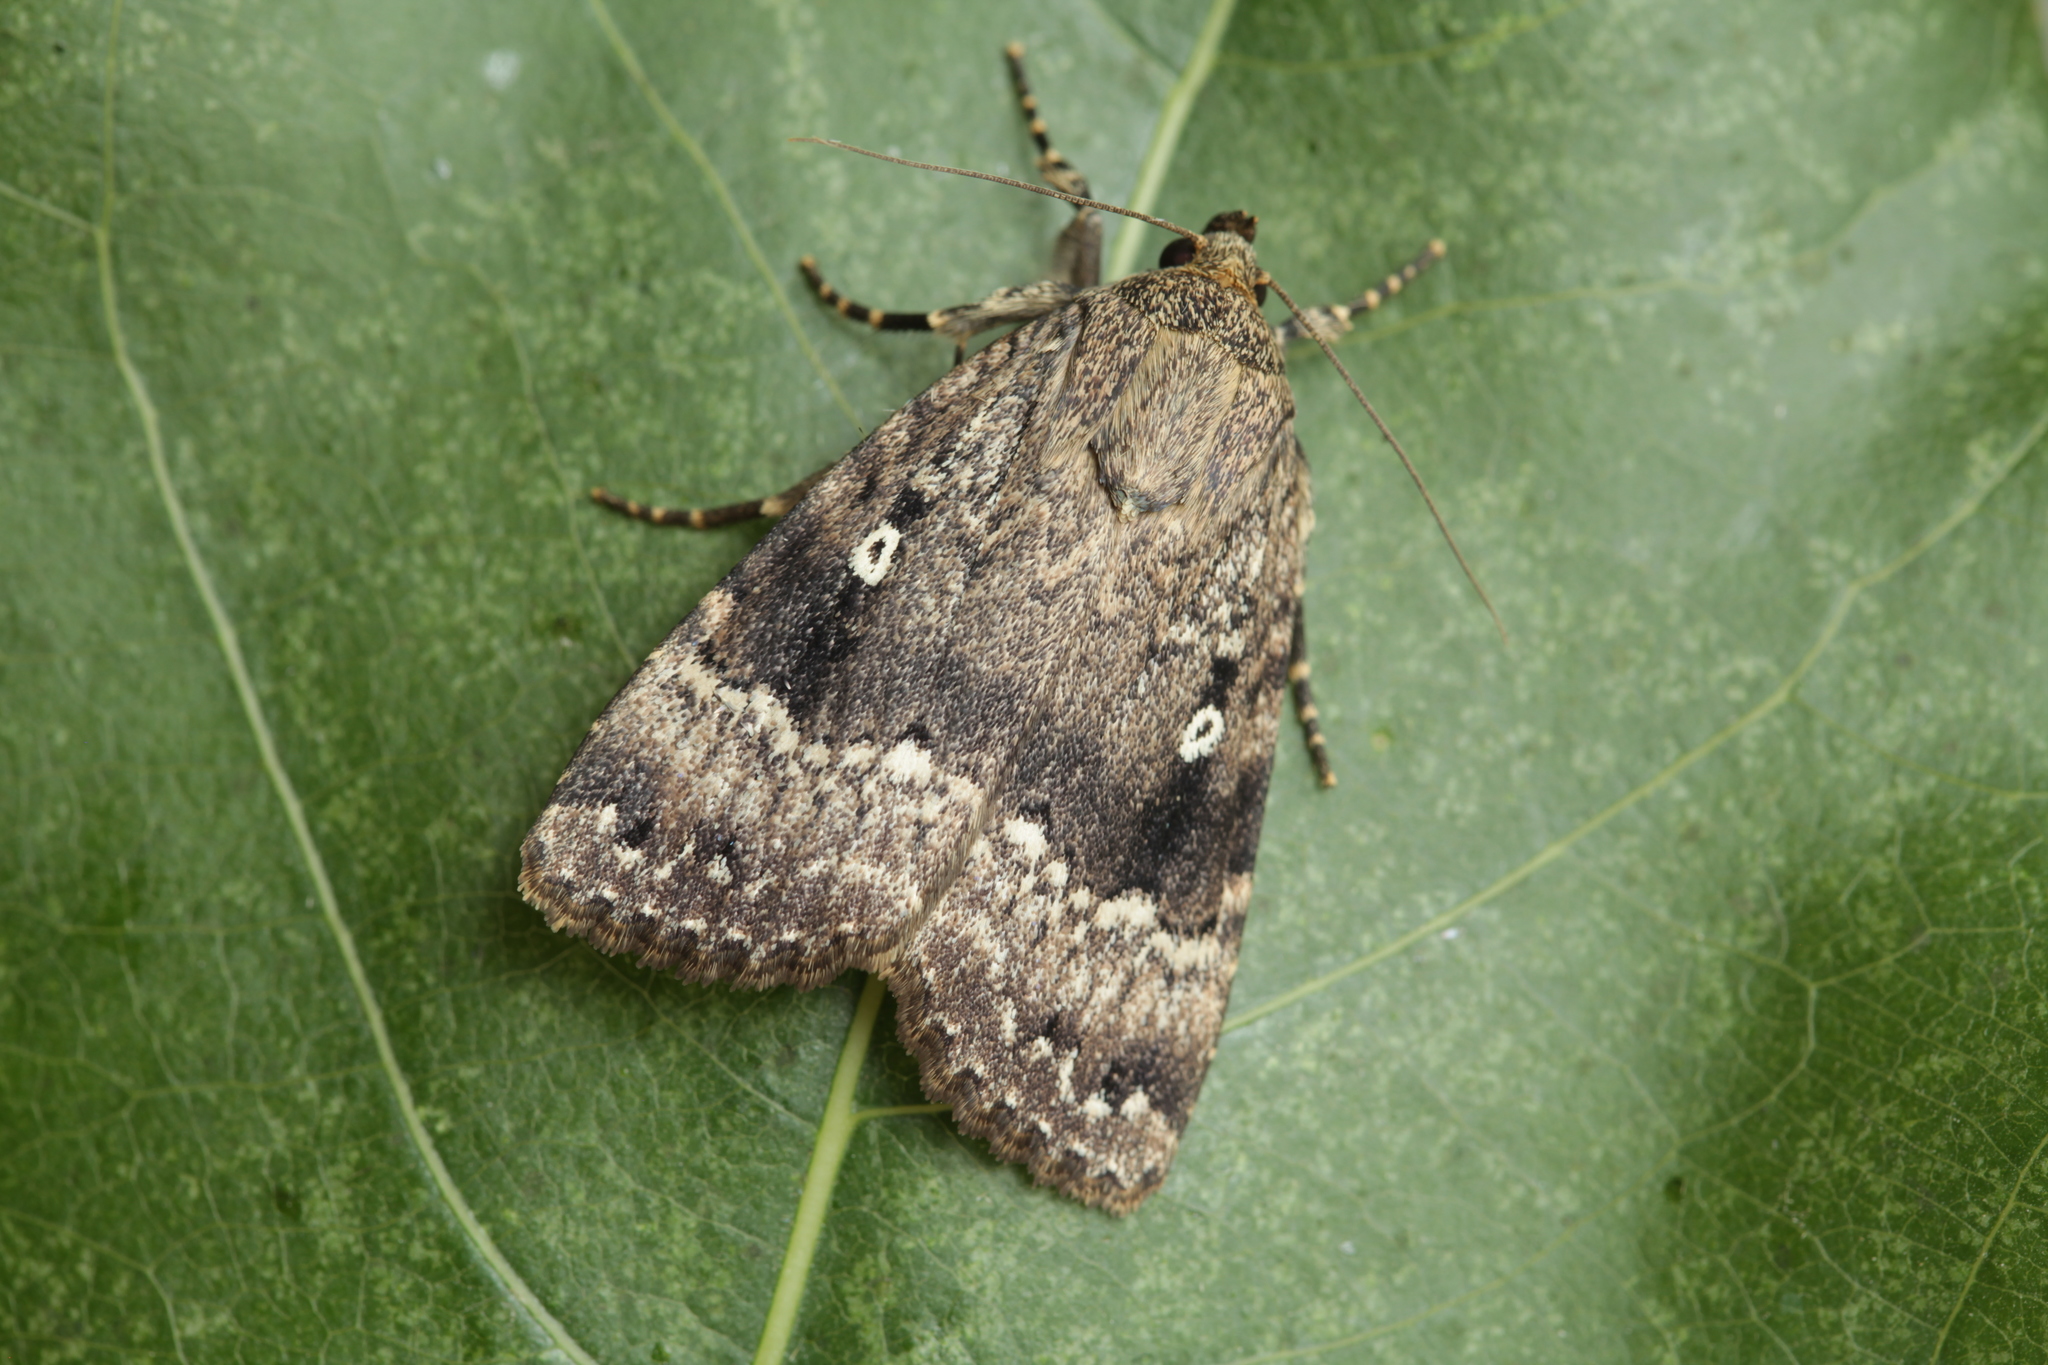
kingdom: Animalia
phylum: Arthropoda
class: Insecta
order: Lepidoptera
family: Noctuidae
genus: Amphipyra
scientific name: Amphipyra pyramidea
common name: Copper underwing
